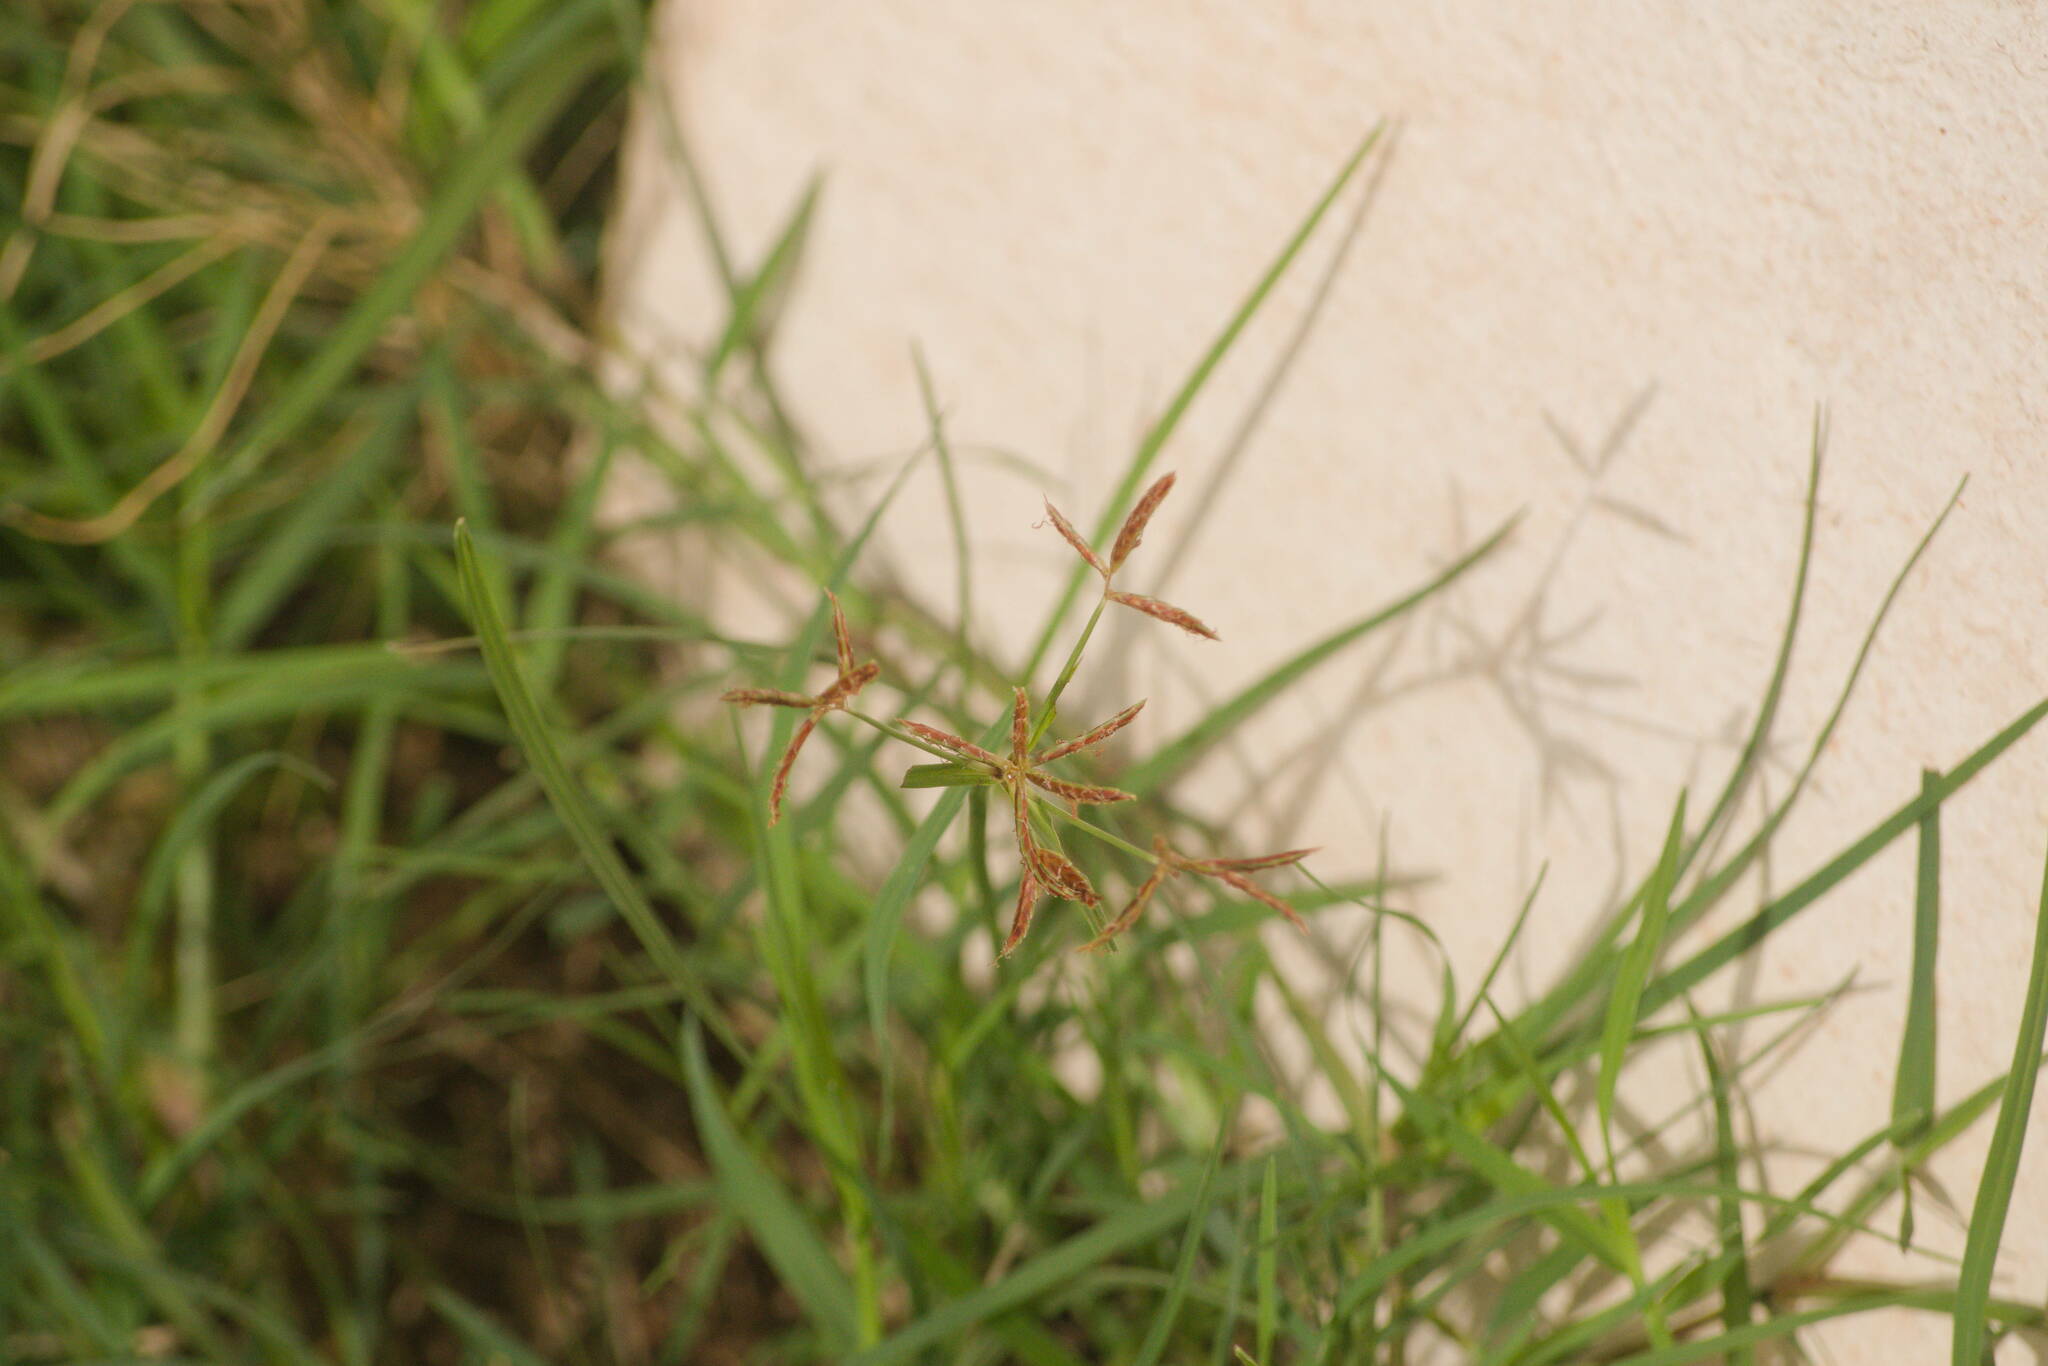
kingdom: Plantae
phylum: Tracheophyta
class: Liliopsida
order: Poales
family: Cyperaceae
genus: Cyperus
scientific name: Cyperus rotundus
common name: Nutgrass
